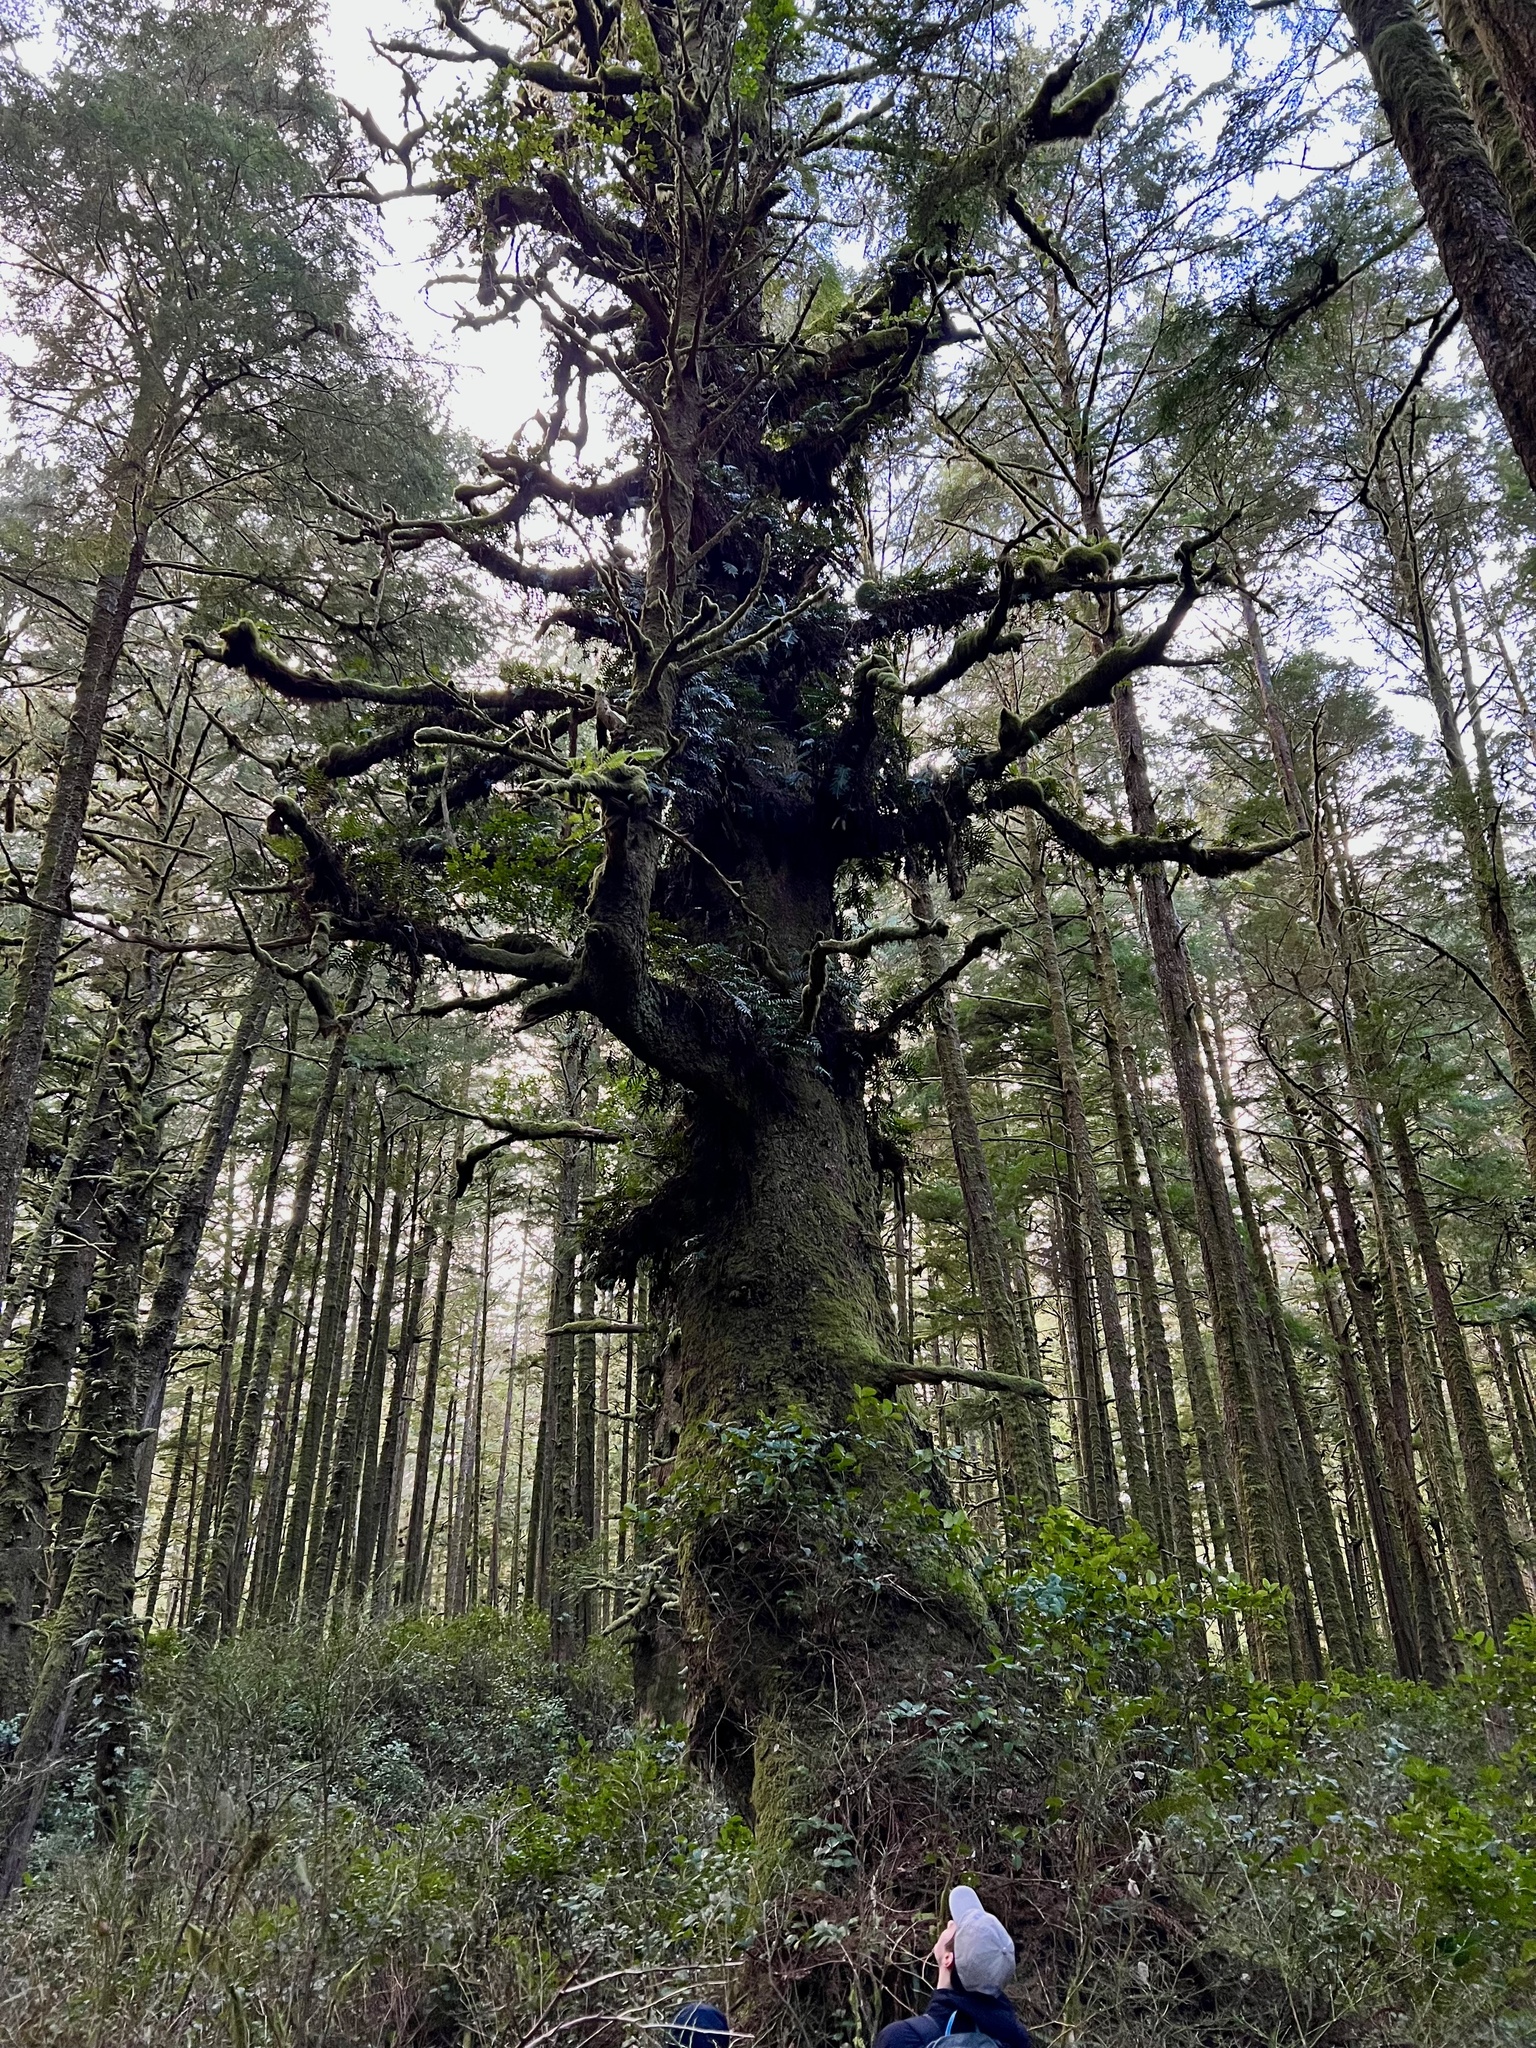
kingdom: Plantae
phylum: Tracheophyta
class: Pinopsida
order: Pinales
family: Pinaceae
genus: Picea
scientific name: Picea sitchensis
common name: Sitka spruce
